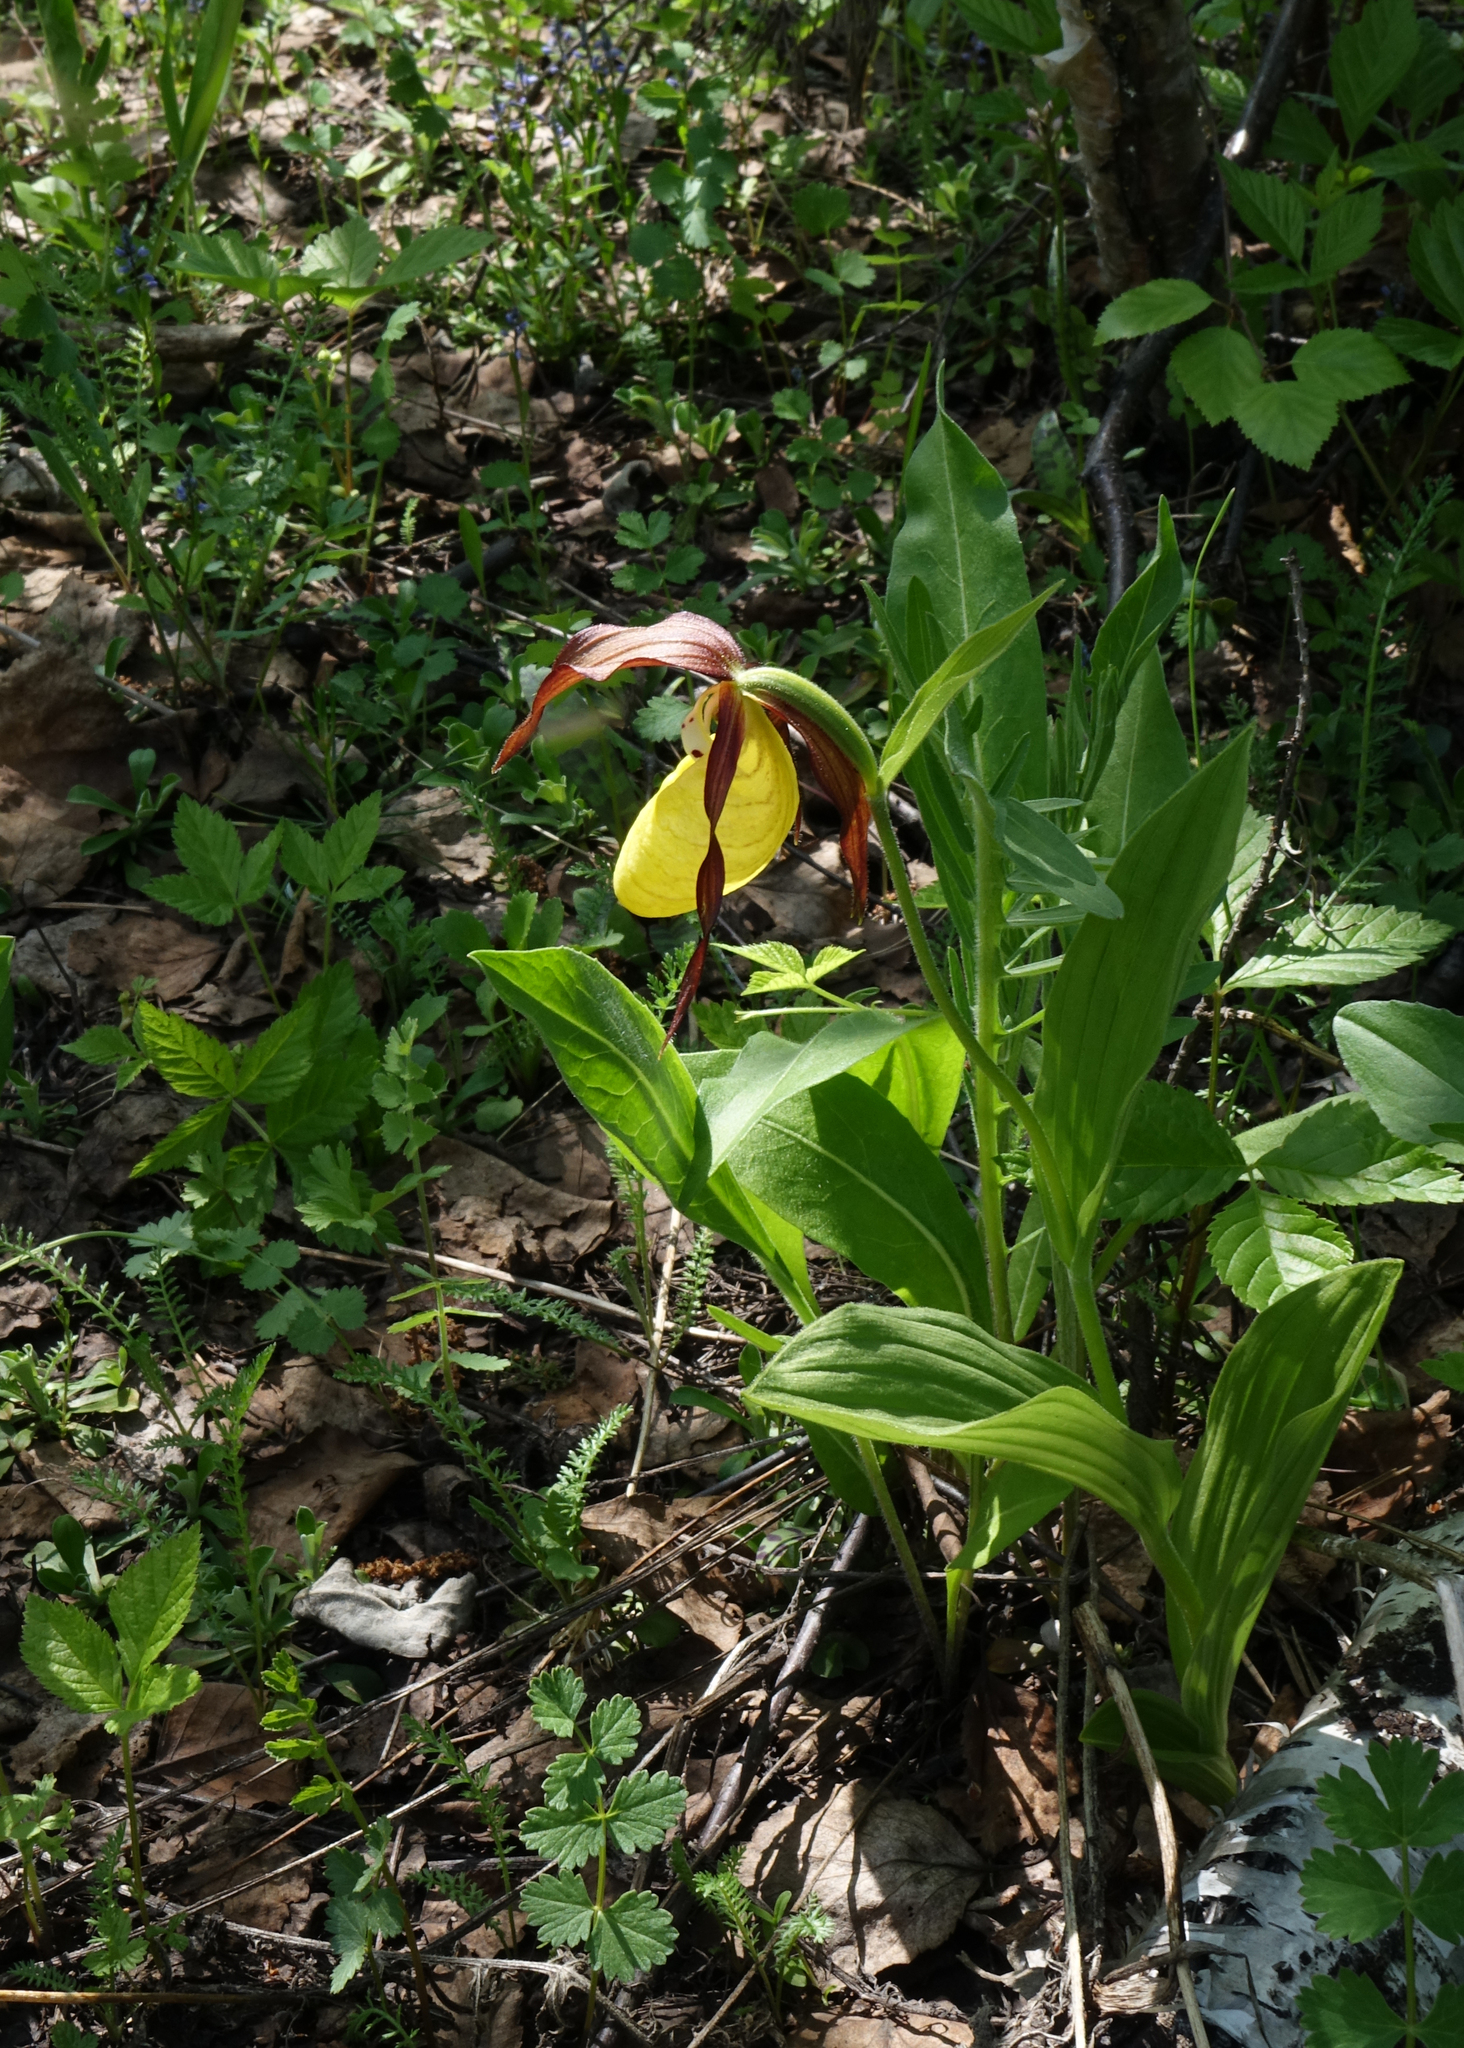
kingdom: Plantae
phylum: Tracheophyta
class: Liliopsida
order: Asparagales
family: Orchidaceae
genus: Cypripedium
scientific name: Cypripedium calceolus
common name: Lady's-slipper
